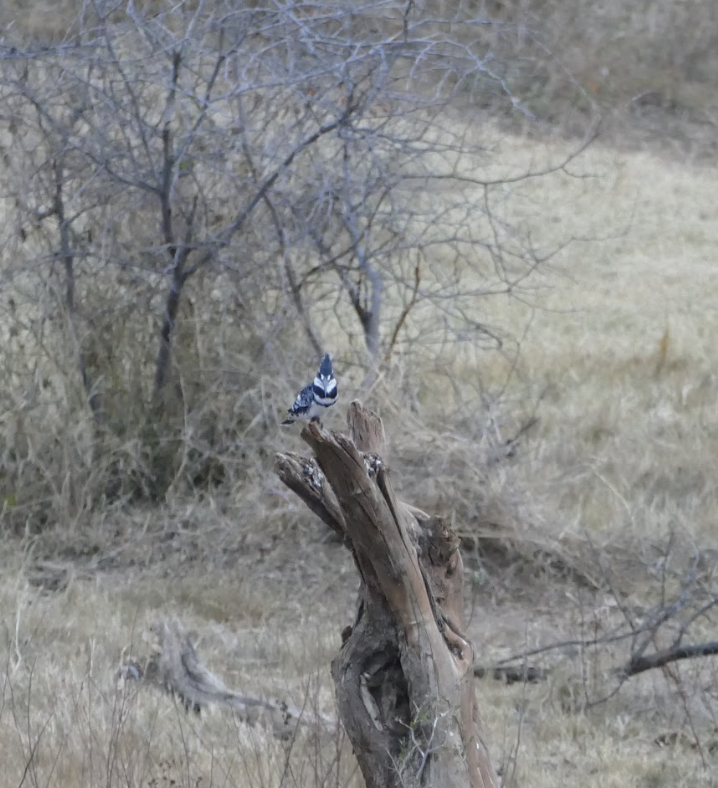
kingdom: Animalia
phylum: Chordata
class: Aves
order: Coraciiformes
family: Alcedinidae
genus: Ceryle
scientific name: Ceryle rudis
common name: Pied kingfisher
